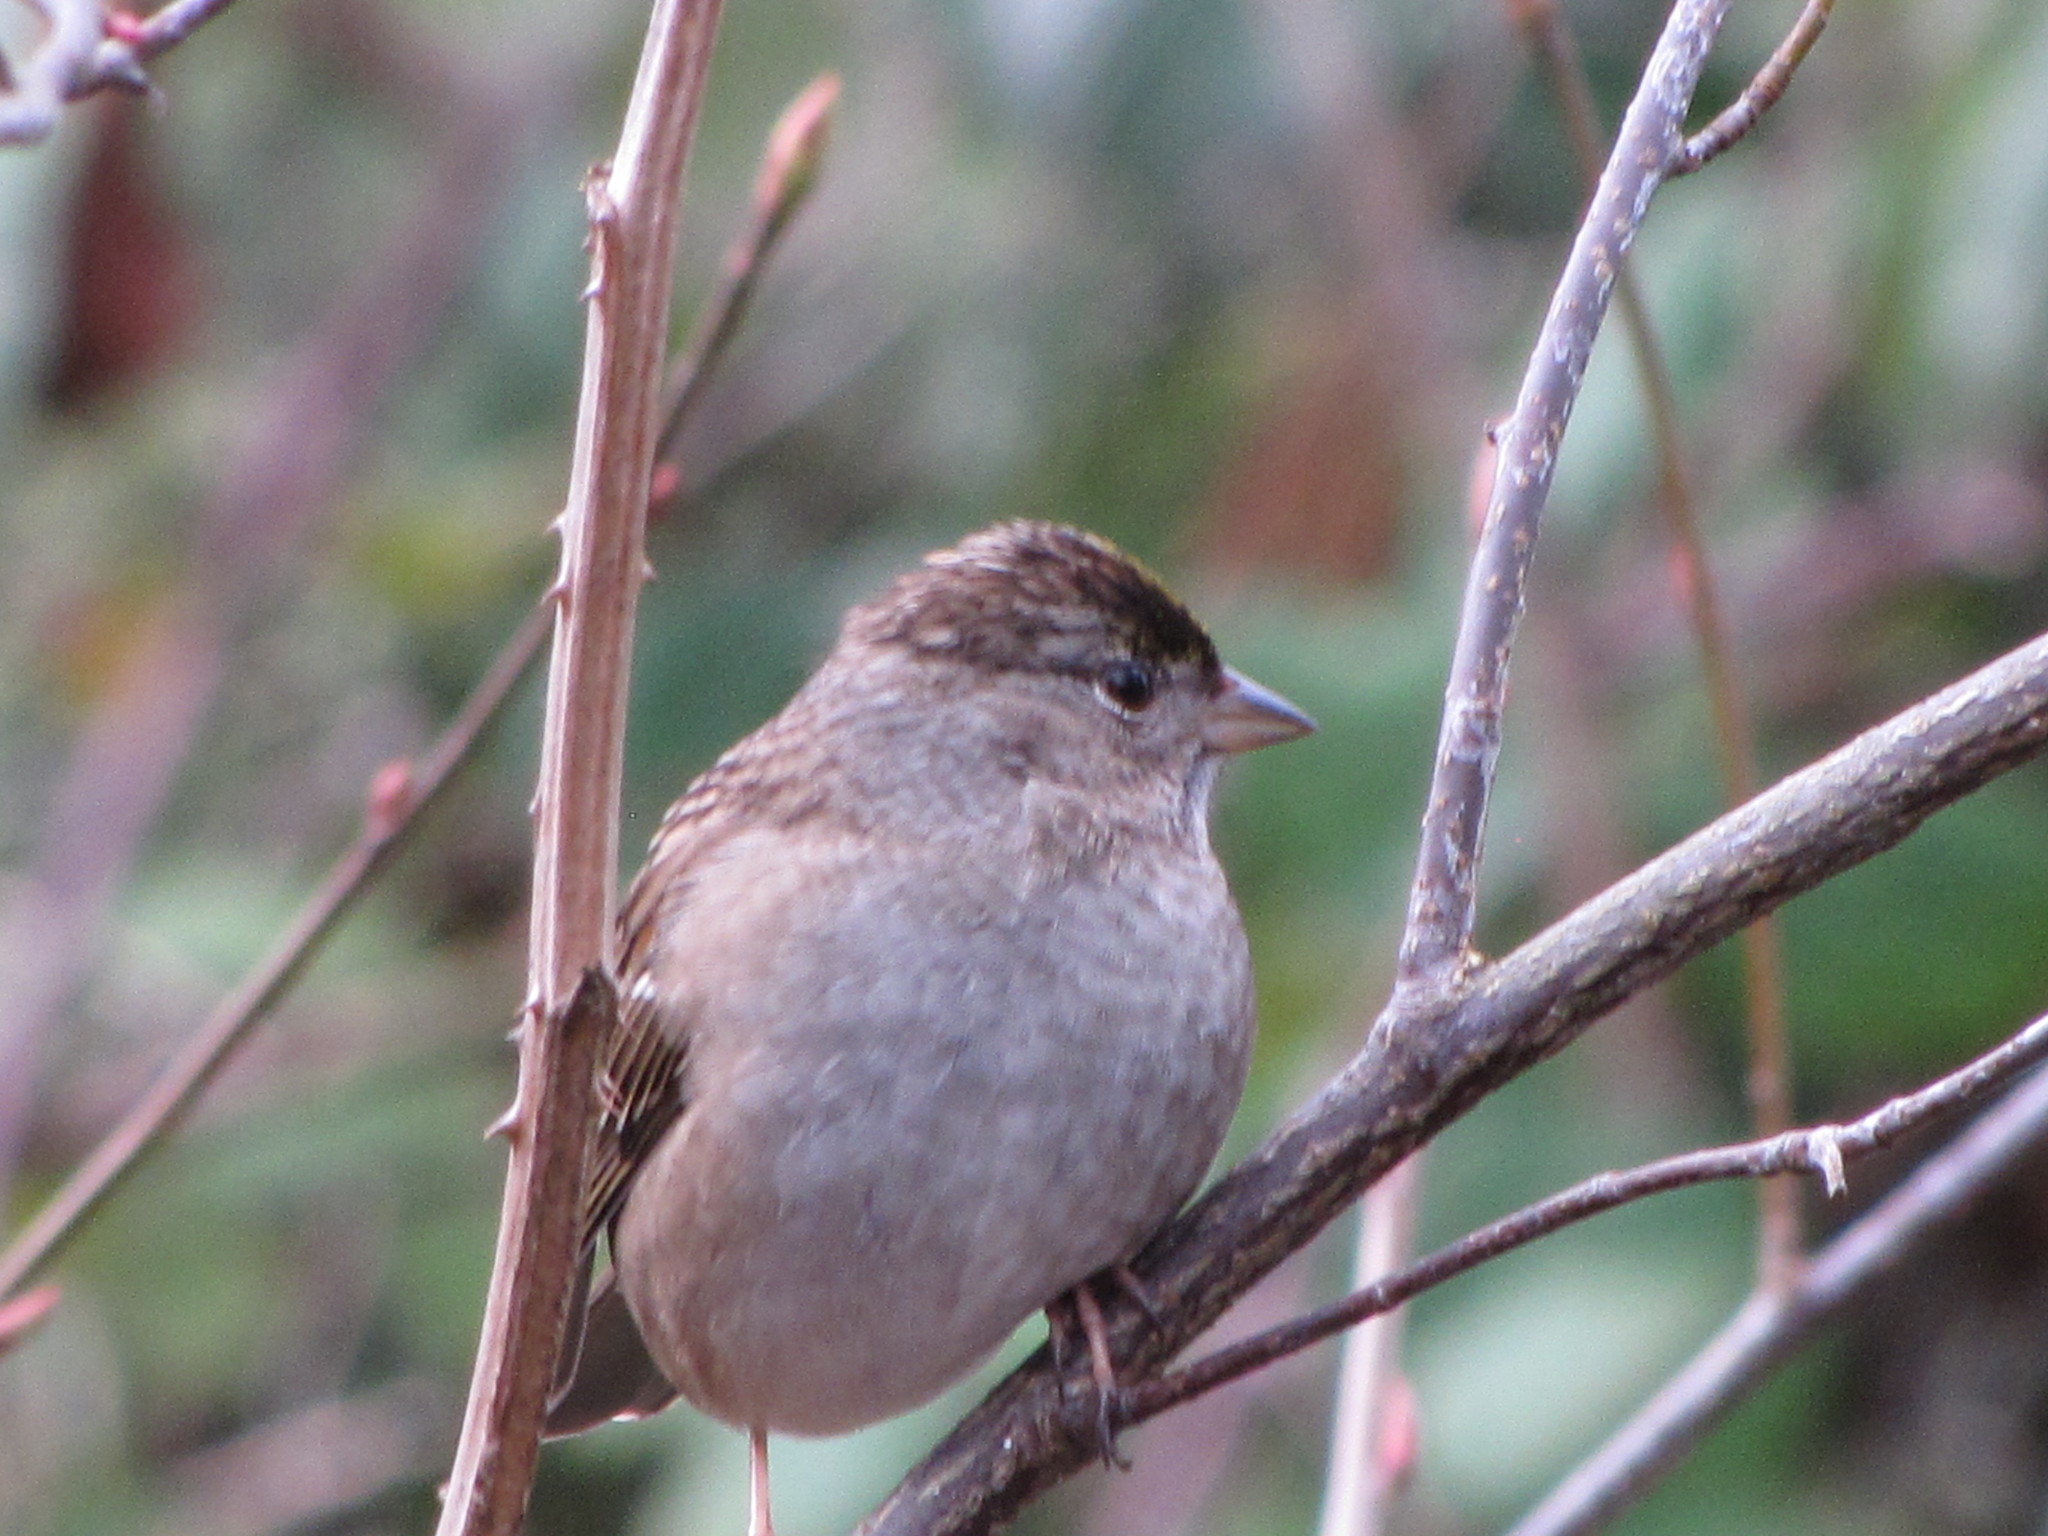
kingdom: Animalia
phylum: Chordata
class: Aves
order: Passeriformes
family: Passerellidae
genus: Zonotrichia
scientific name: Zonotrichia atricapilla
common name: Golden-crowned sparrow
